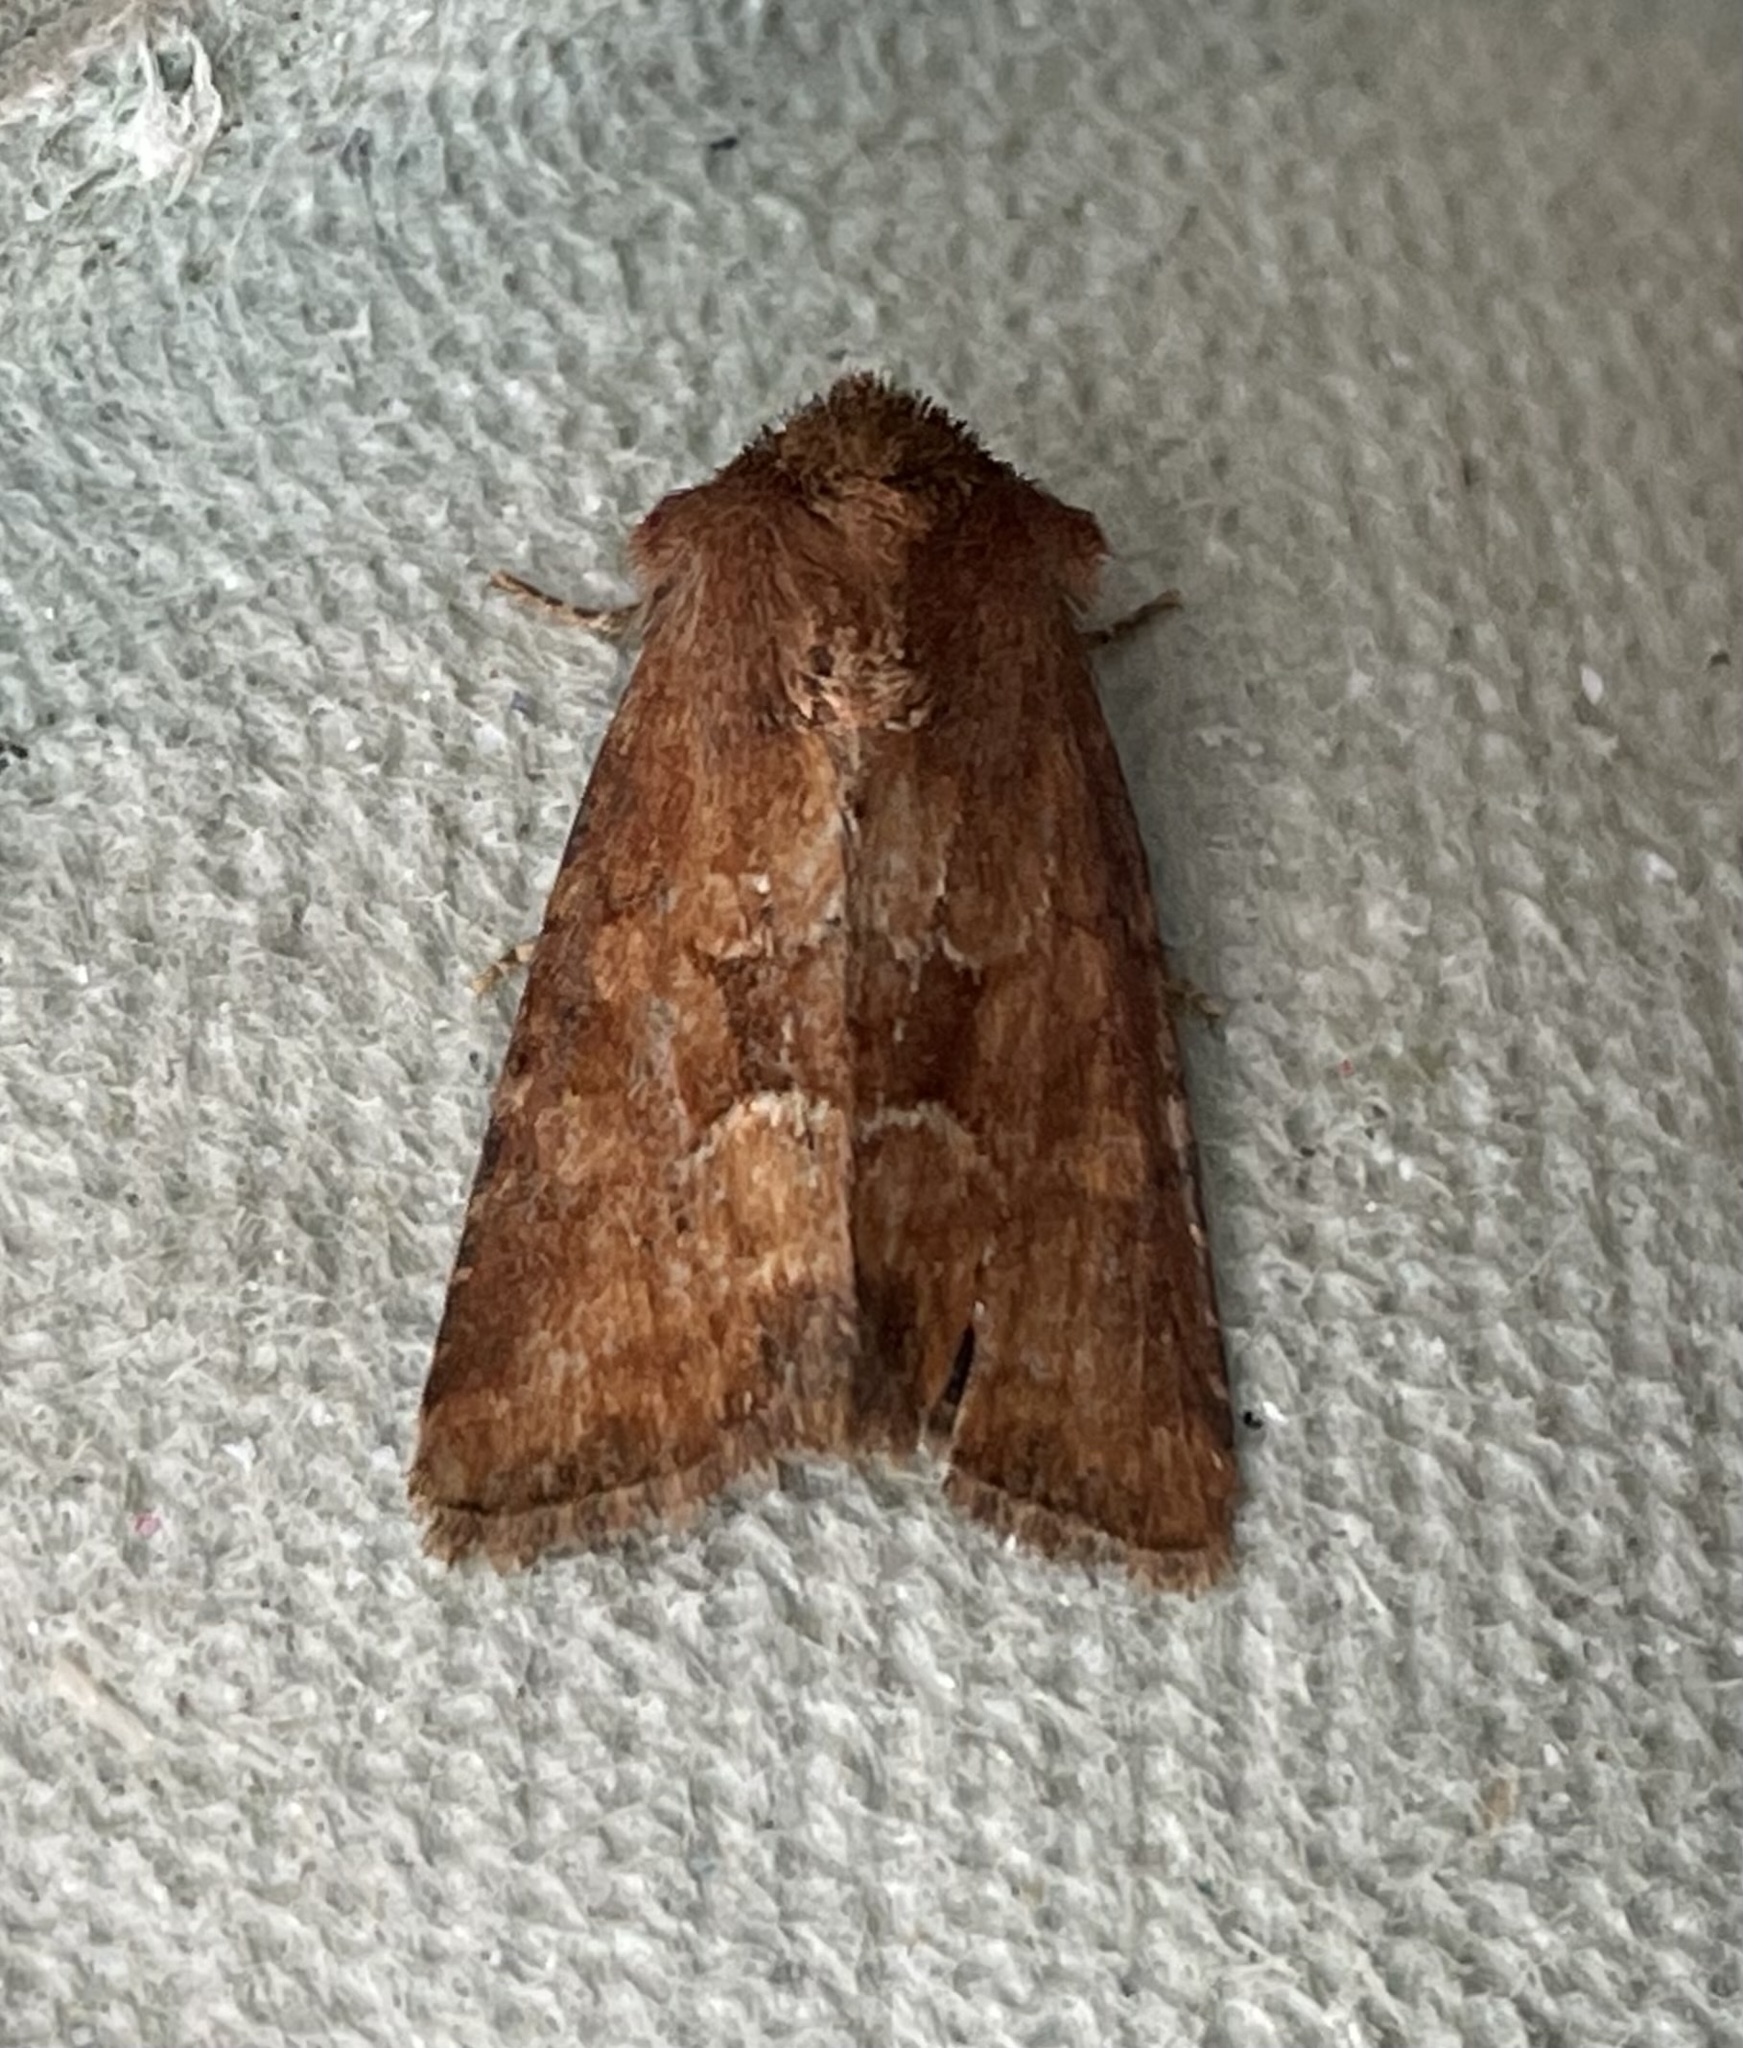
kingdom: Animalia
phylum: Arthropoda
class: Insecta
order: Lepidoptera
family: Noctuidae
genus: Oligia
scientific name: Oligia fasciuncula
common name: Middle-barred minor
